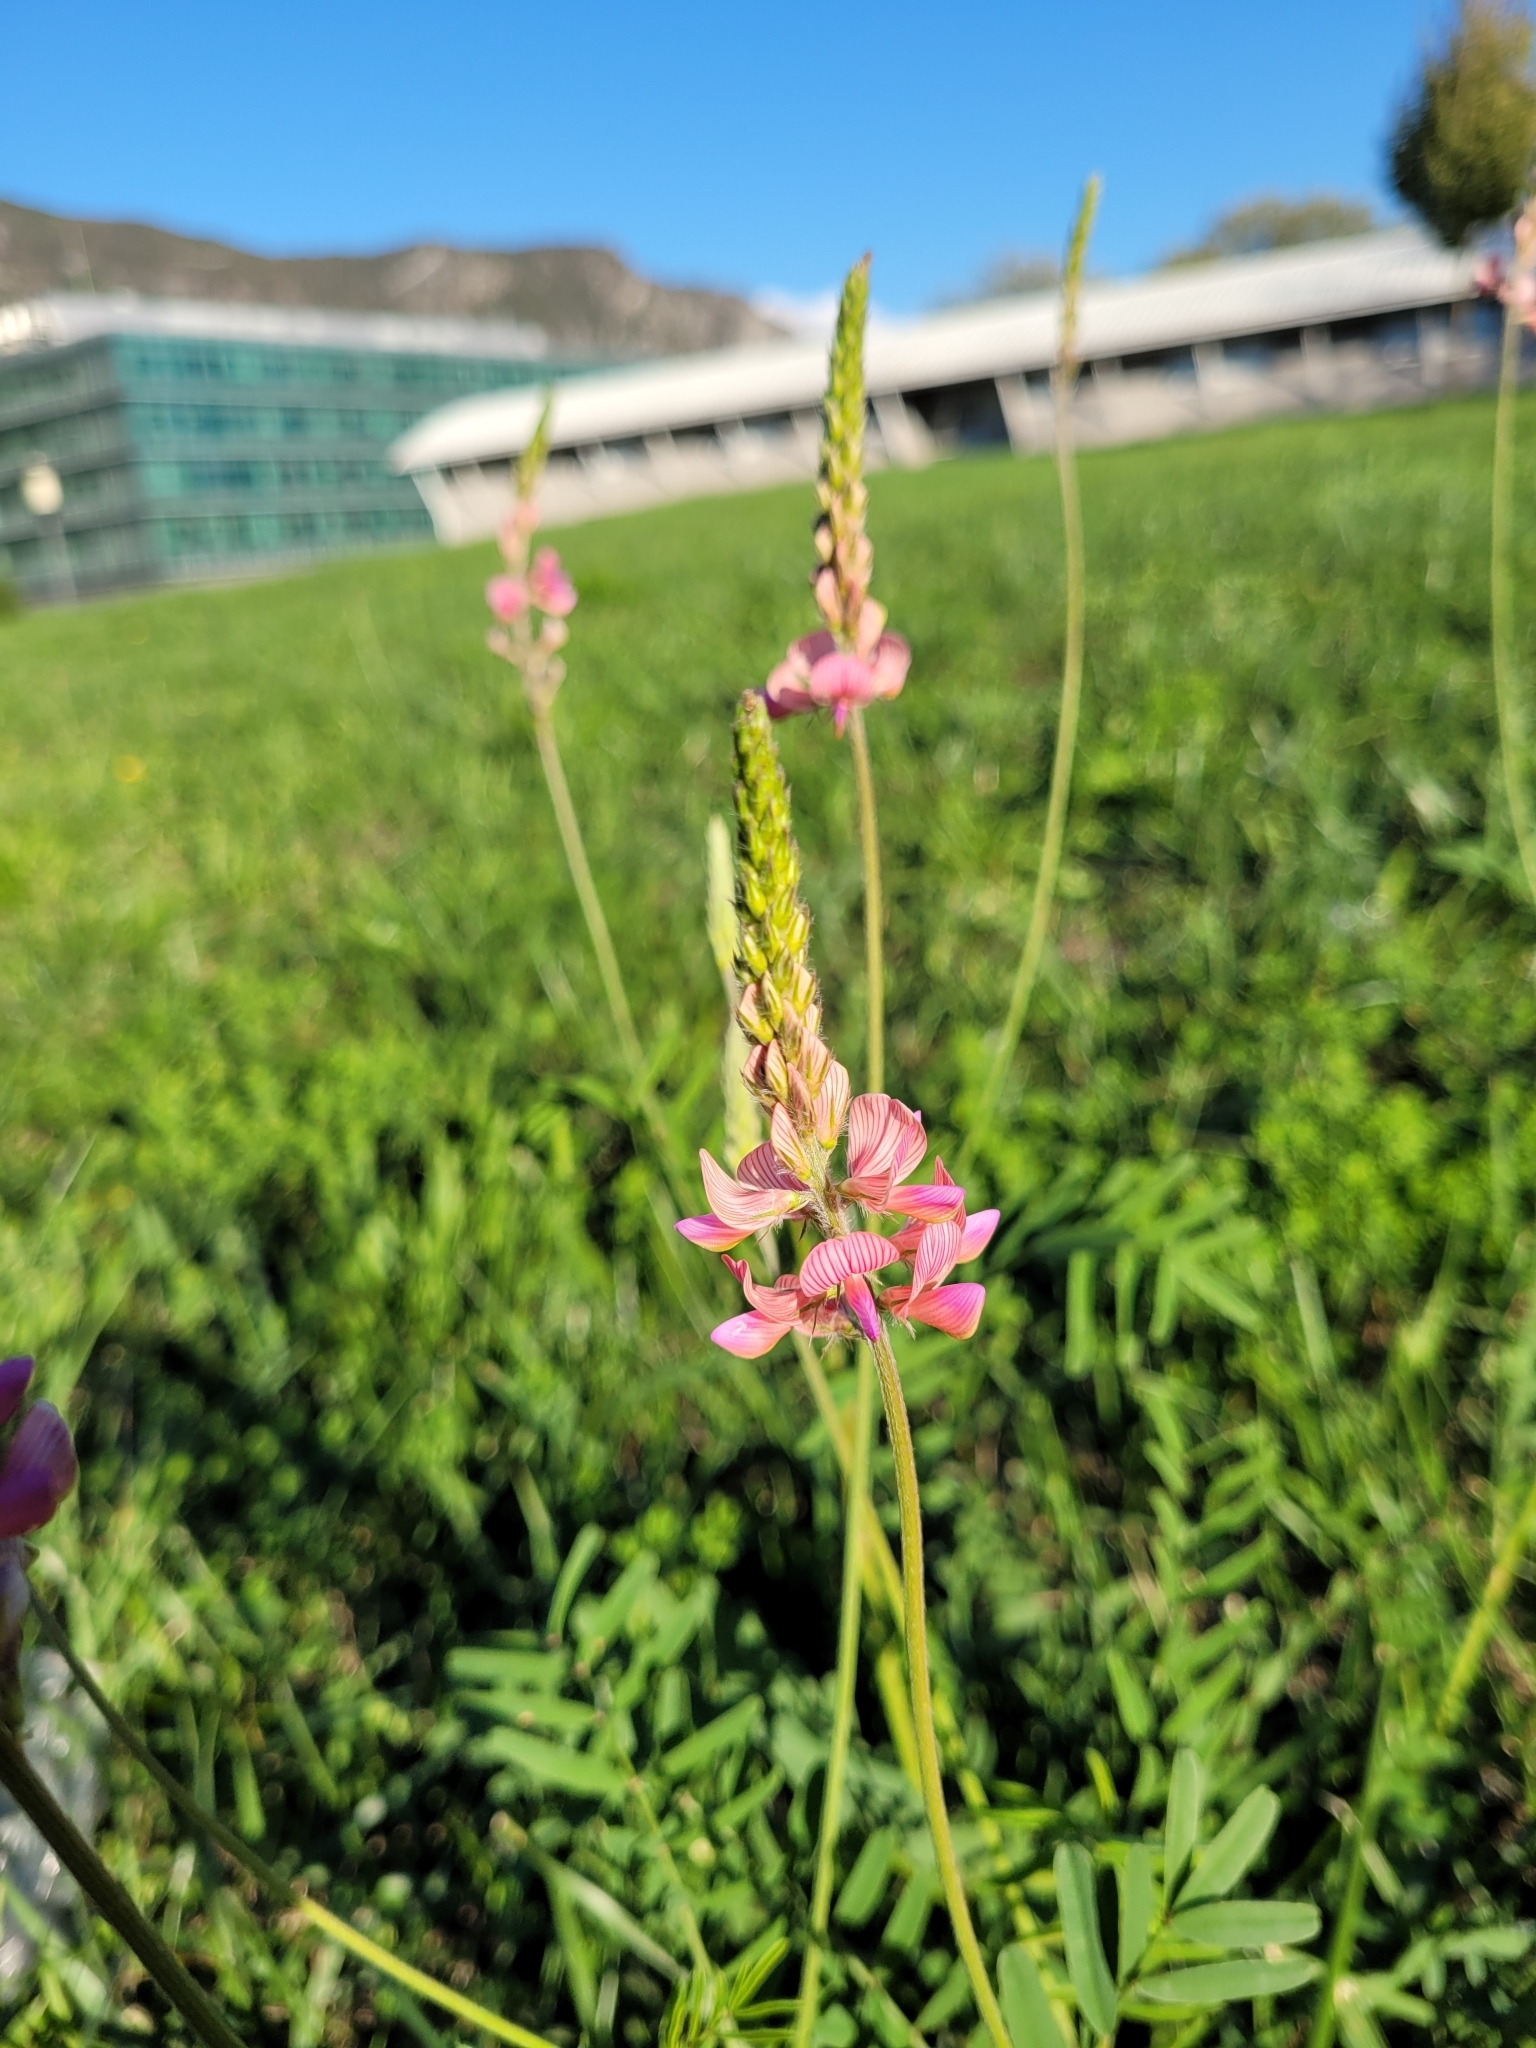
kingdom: Plantae
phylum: Tracheophyta
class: Magnoliopsida
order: Fabales
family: Fabaceae
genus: Onobrychis
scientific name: Onobrychis viciifolia
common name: Sainfoin
